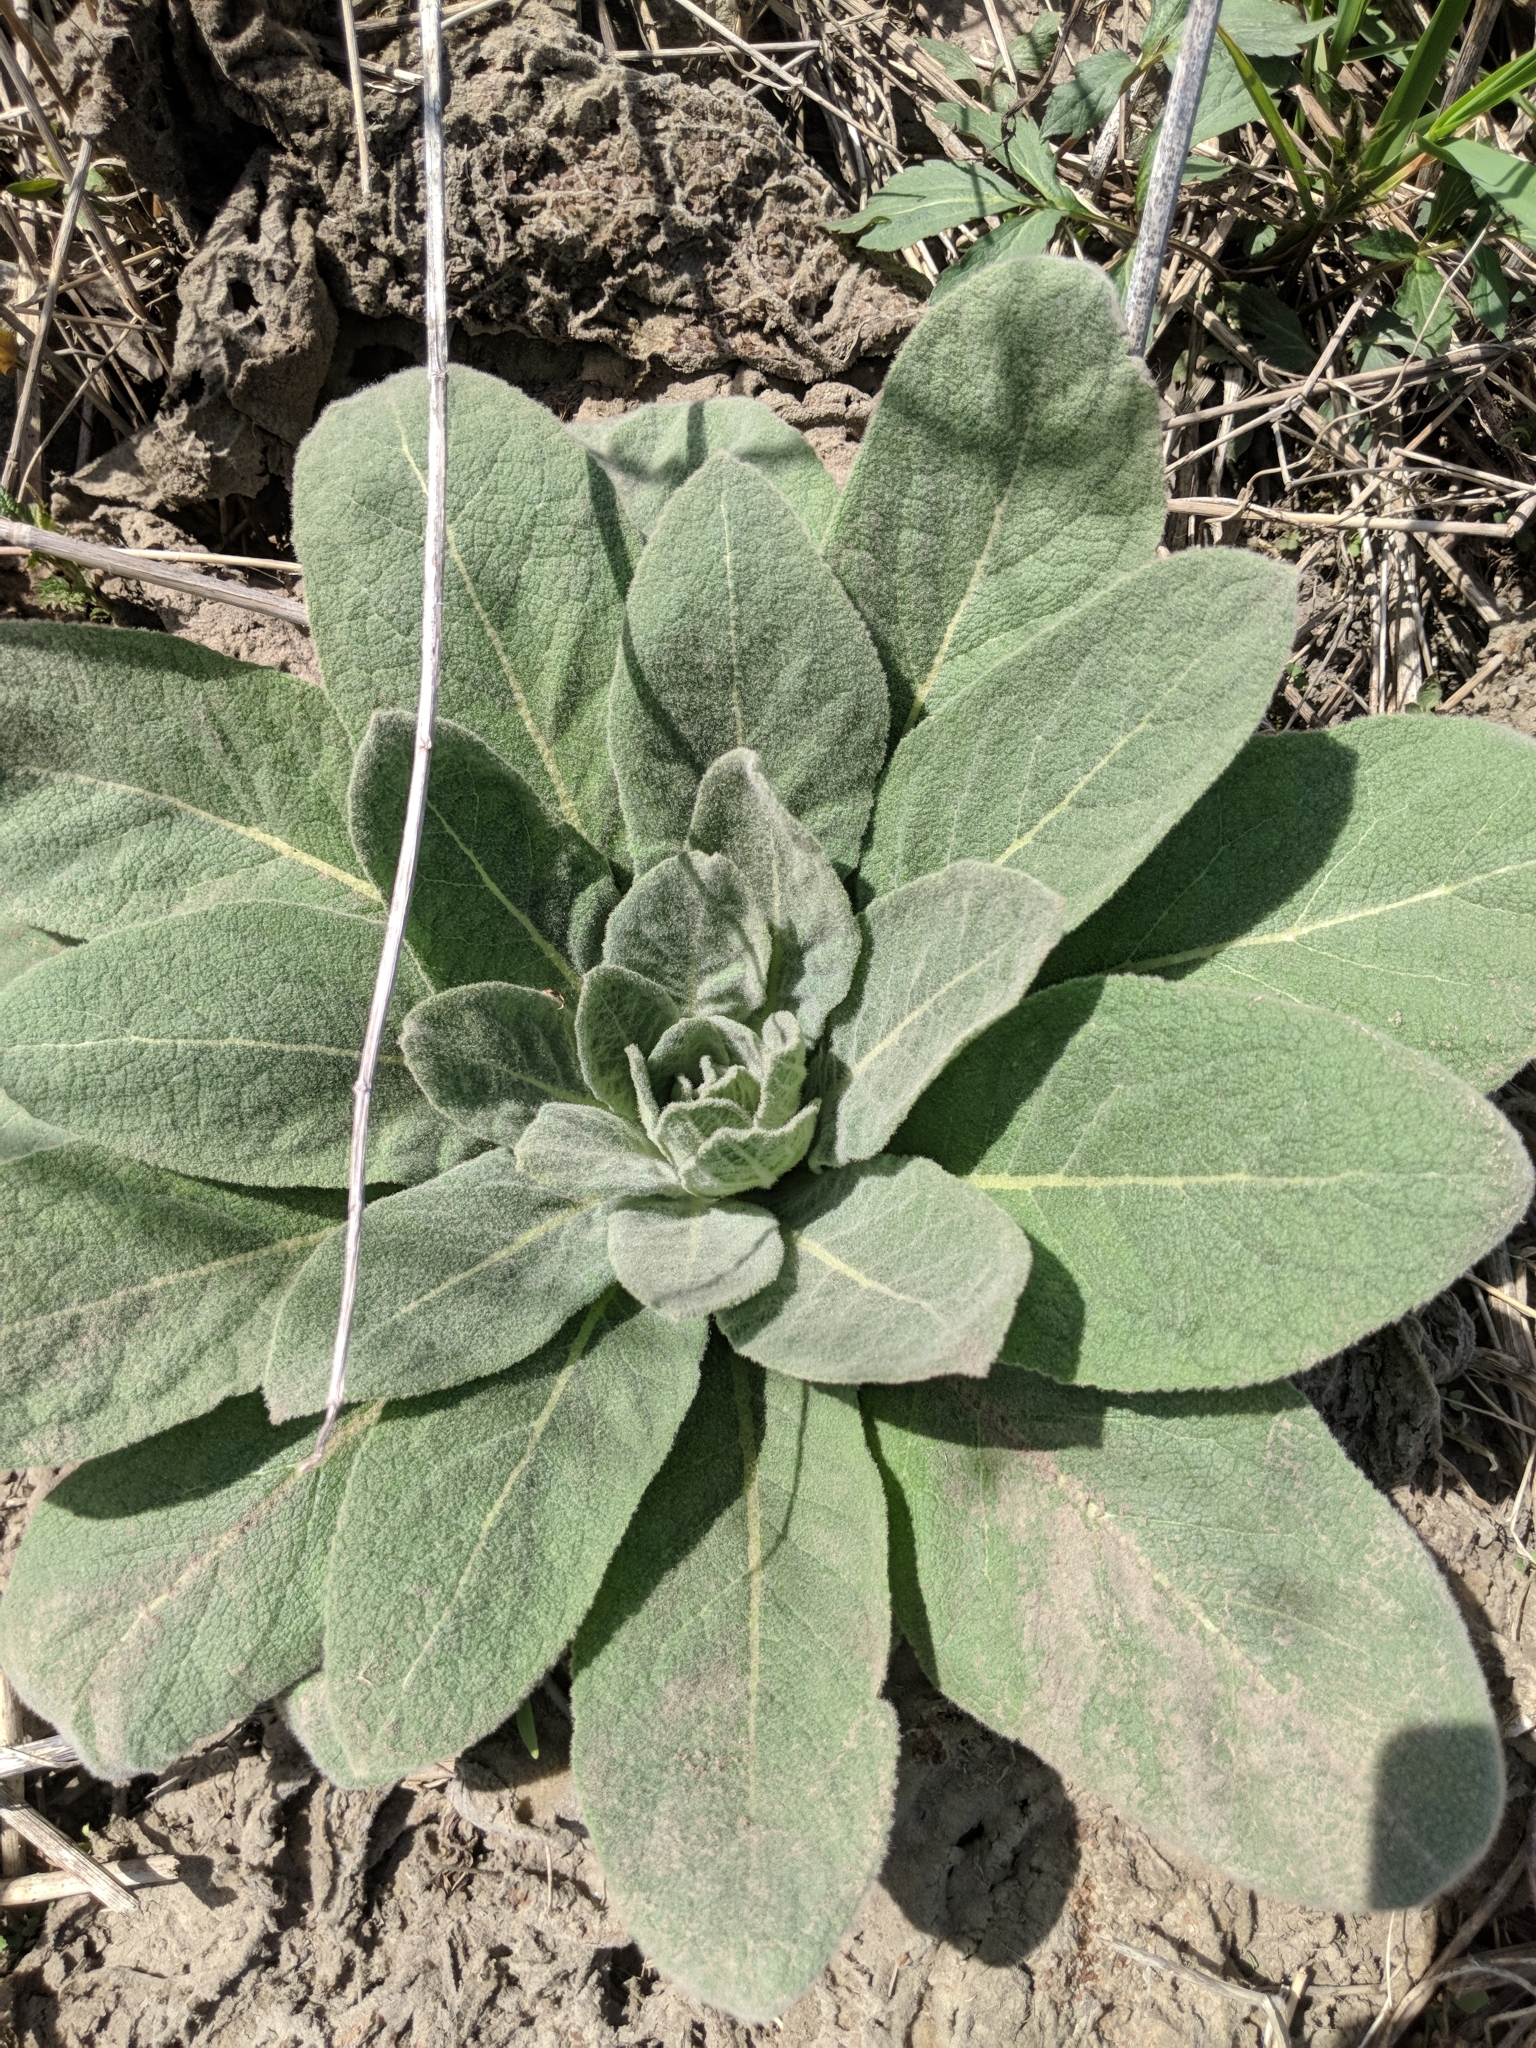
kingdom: Plantae
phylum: Tracheophyta
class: Magnoliopsida
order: Lamiales
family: Scrophulariaceae
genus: Verbascum
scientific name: Verbascum thapsus
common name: Common mullein
